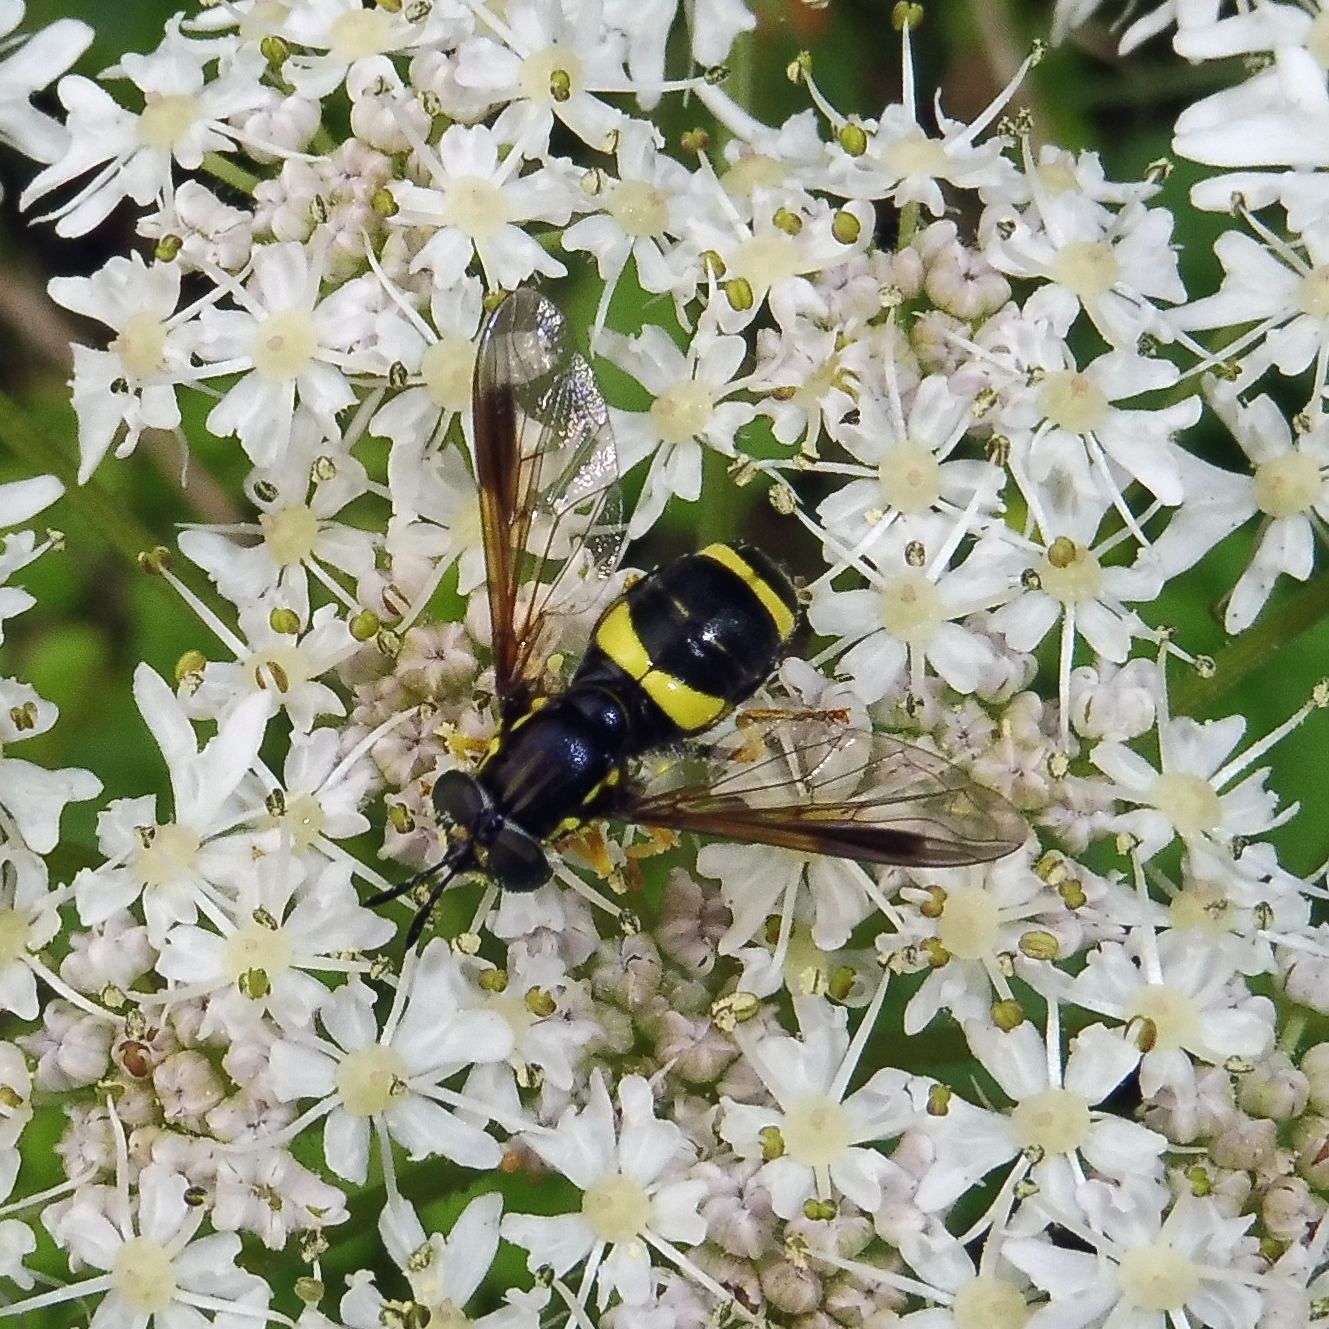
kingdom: Animalia
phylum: Arthropoda
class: Insecta
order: Diptera
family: Syrphidae
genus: Chrysotoxum
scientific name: Chrysotoxum bicincta
